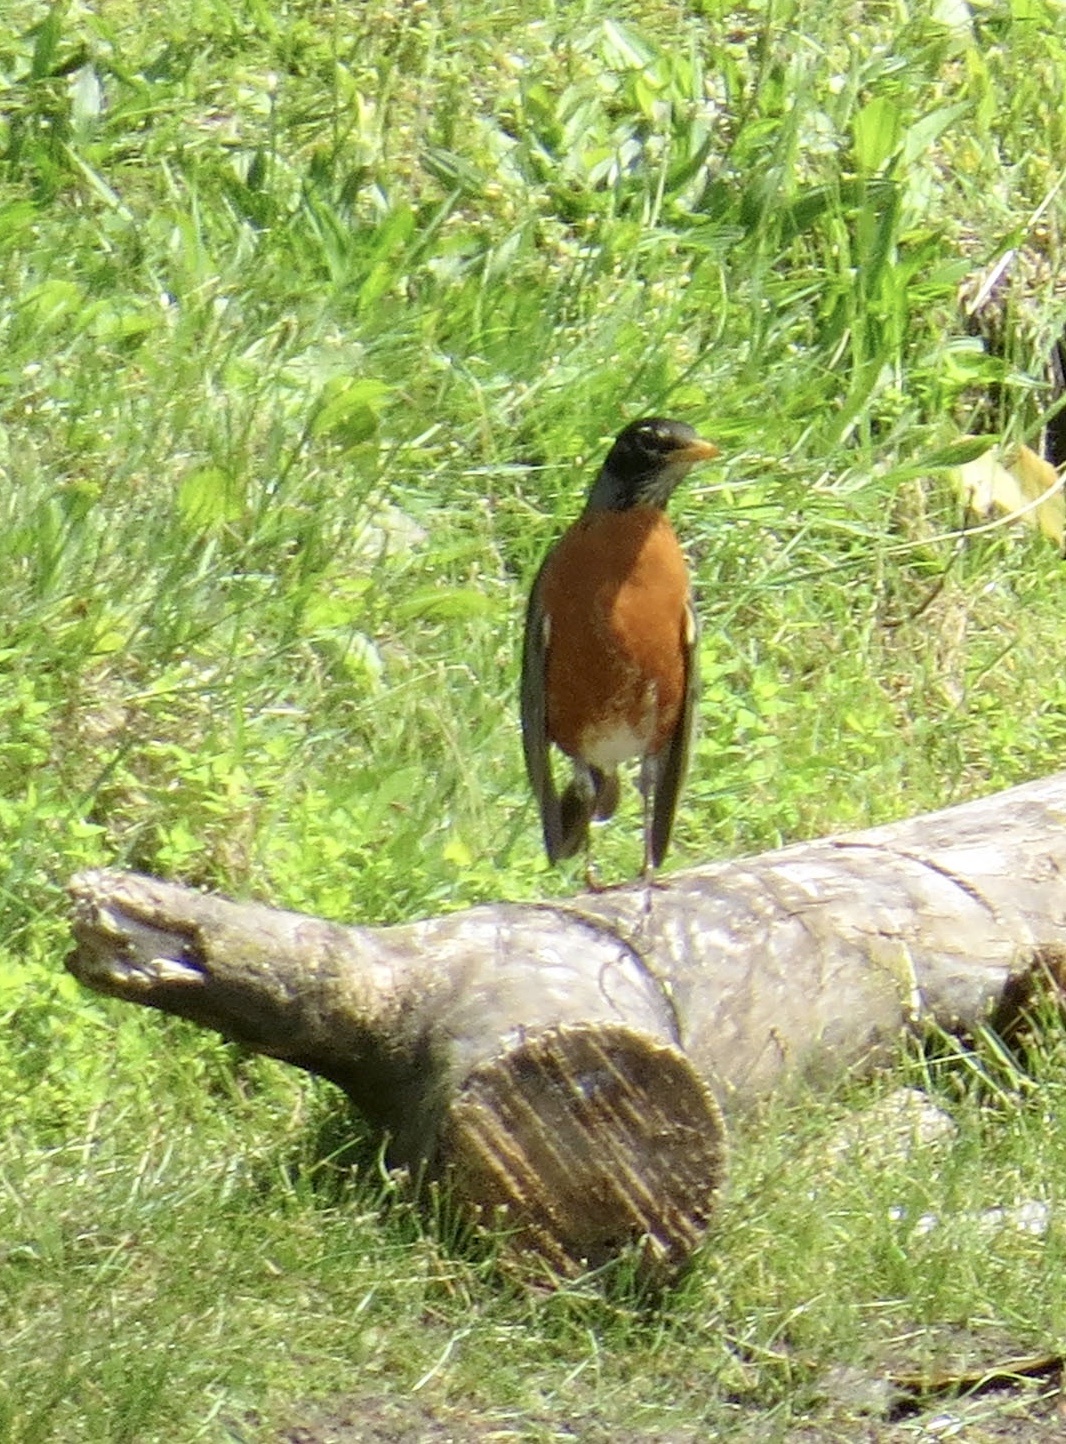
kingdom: Animalia
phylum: Chordata
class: Aves
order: Passeriformes
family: Turdidae
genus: Turdus
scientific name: Turdus migratorius
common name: American robin
